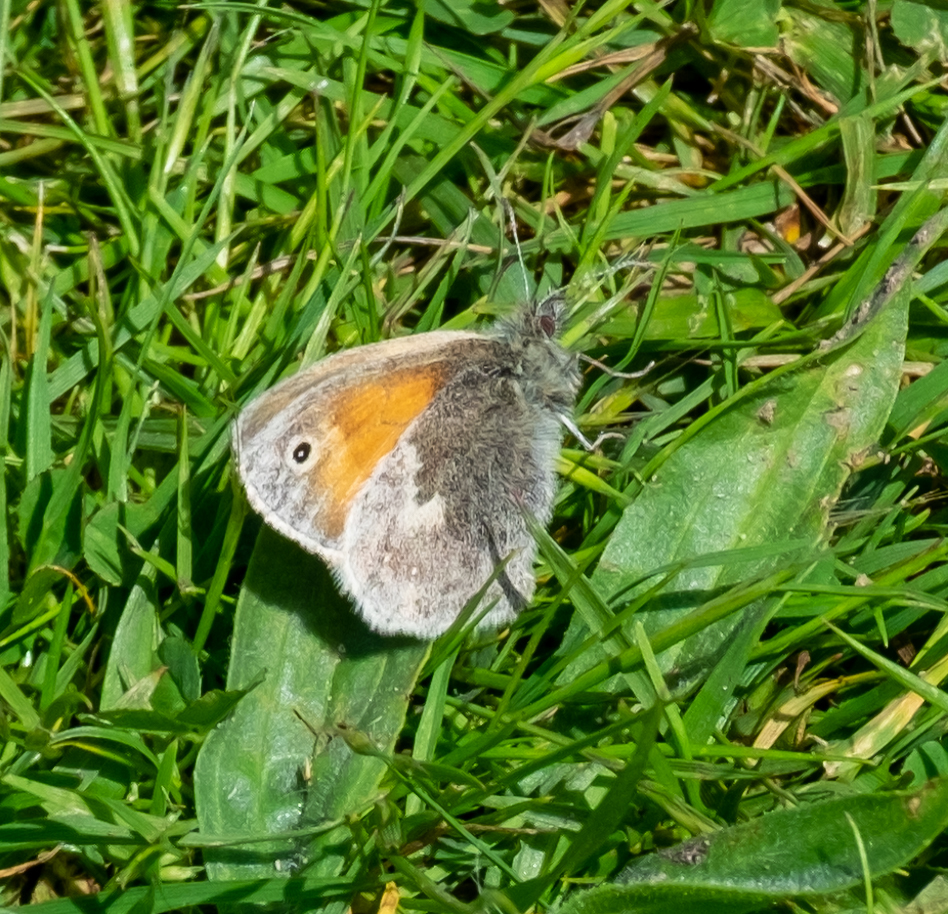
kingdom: Animalia
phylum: Arthropoda
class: Insecta
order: Lepidoptera
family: Nymphalidae
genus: Coenonympha
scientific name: Coenonympha pamphilus
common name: Small heath
